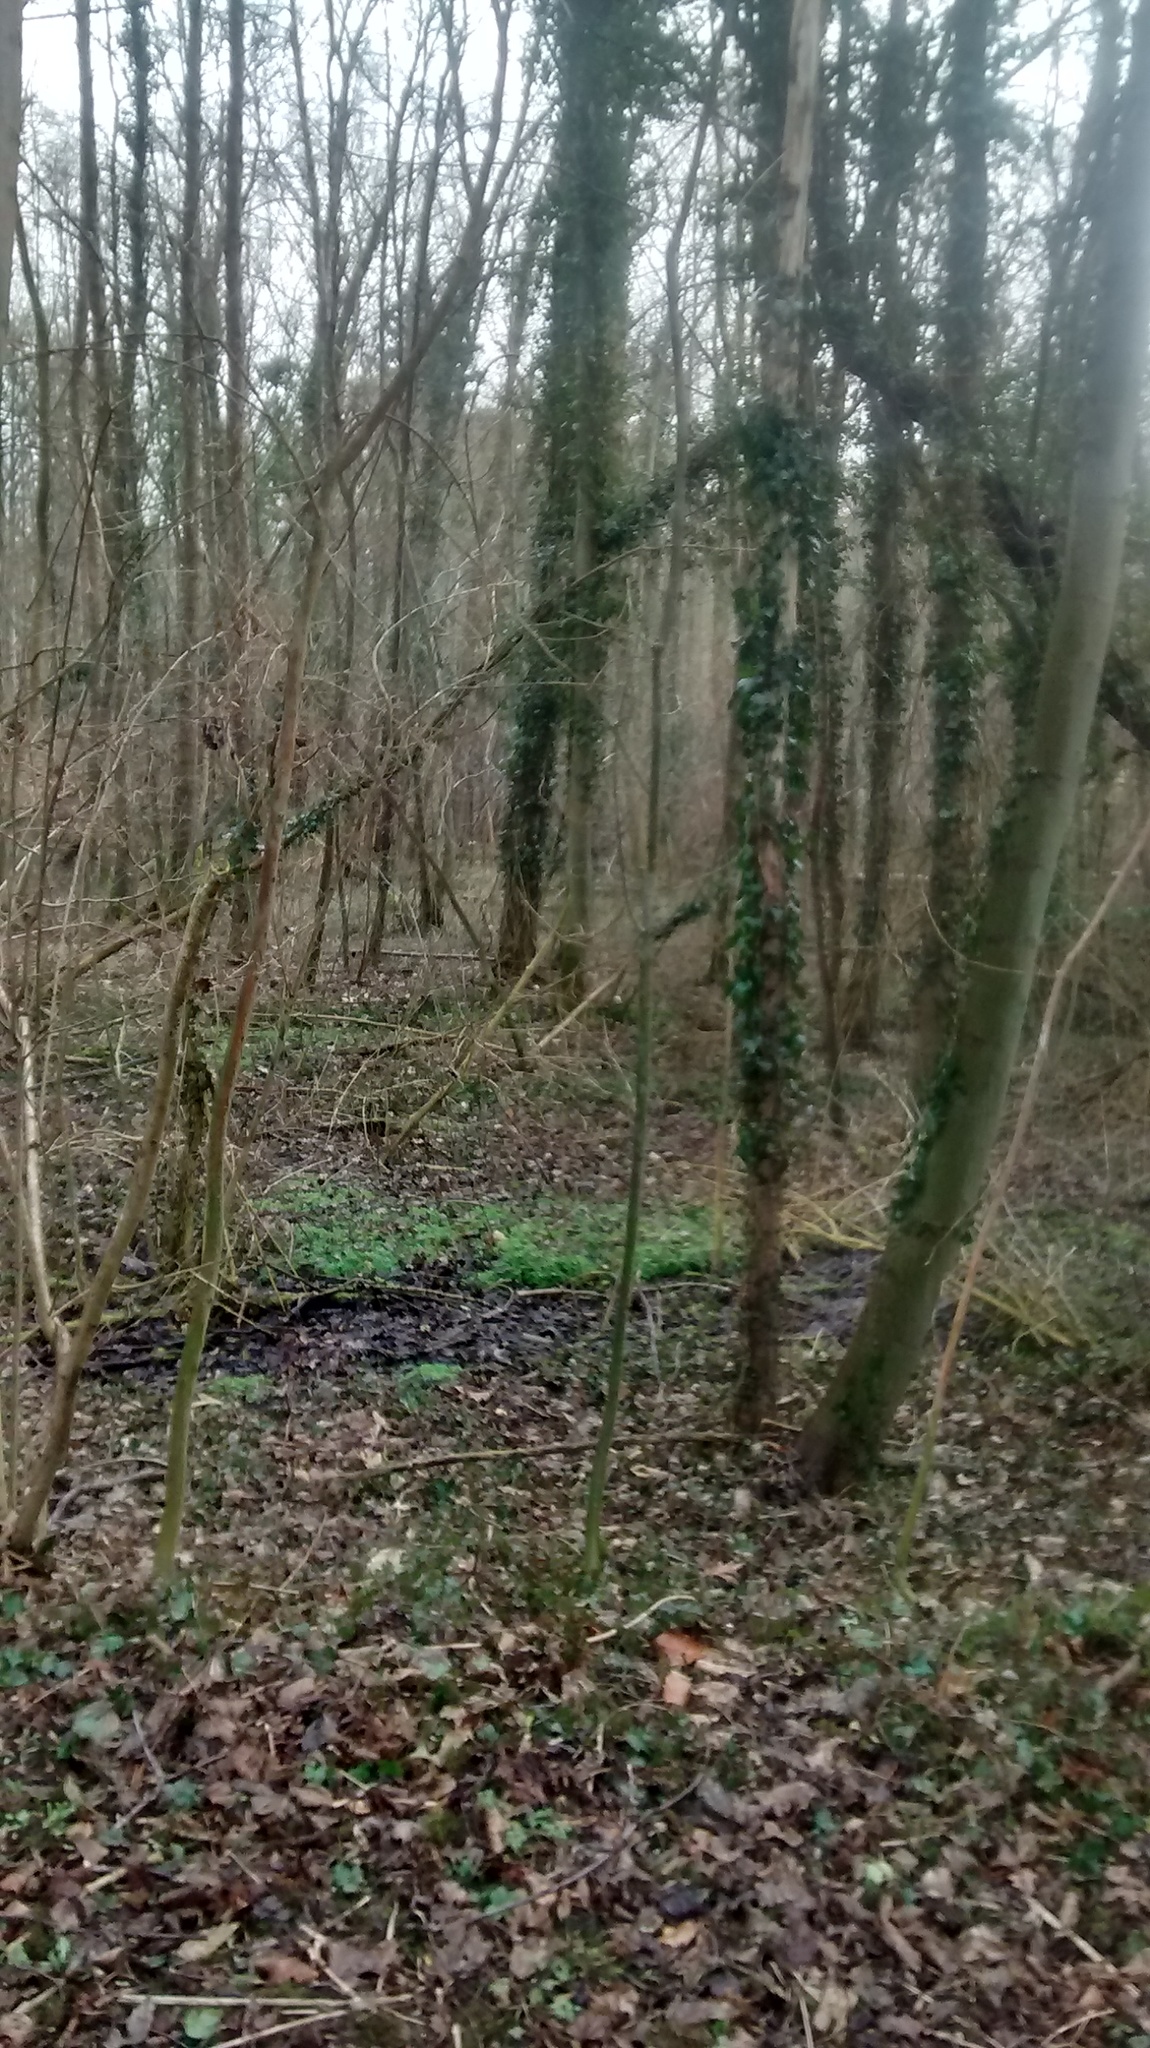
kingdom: Animalia
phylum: Chordata
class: Mammalia
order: Artiodactyla
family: Cervidae
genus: Capreolus
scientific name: Capreolus capreolus
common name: Western roe deer
